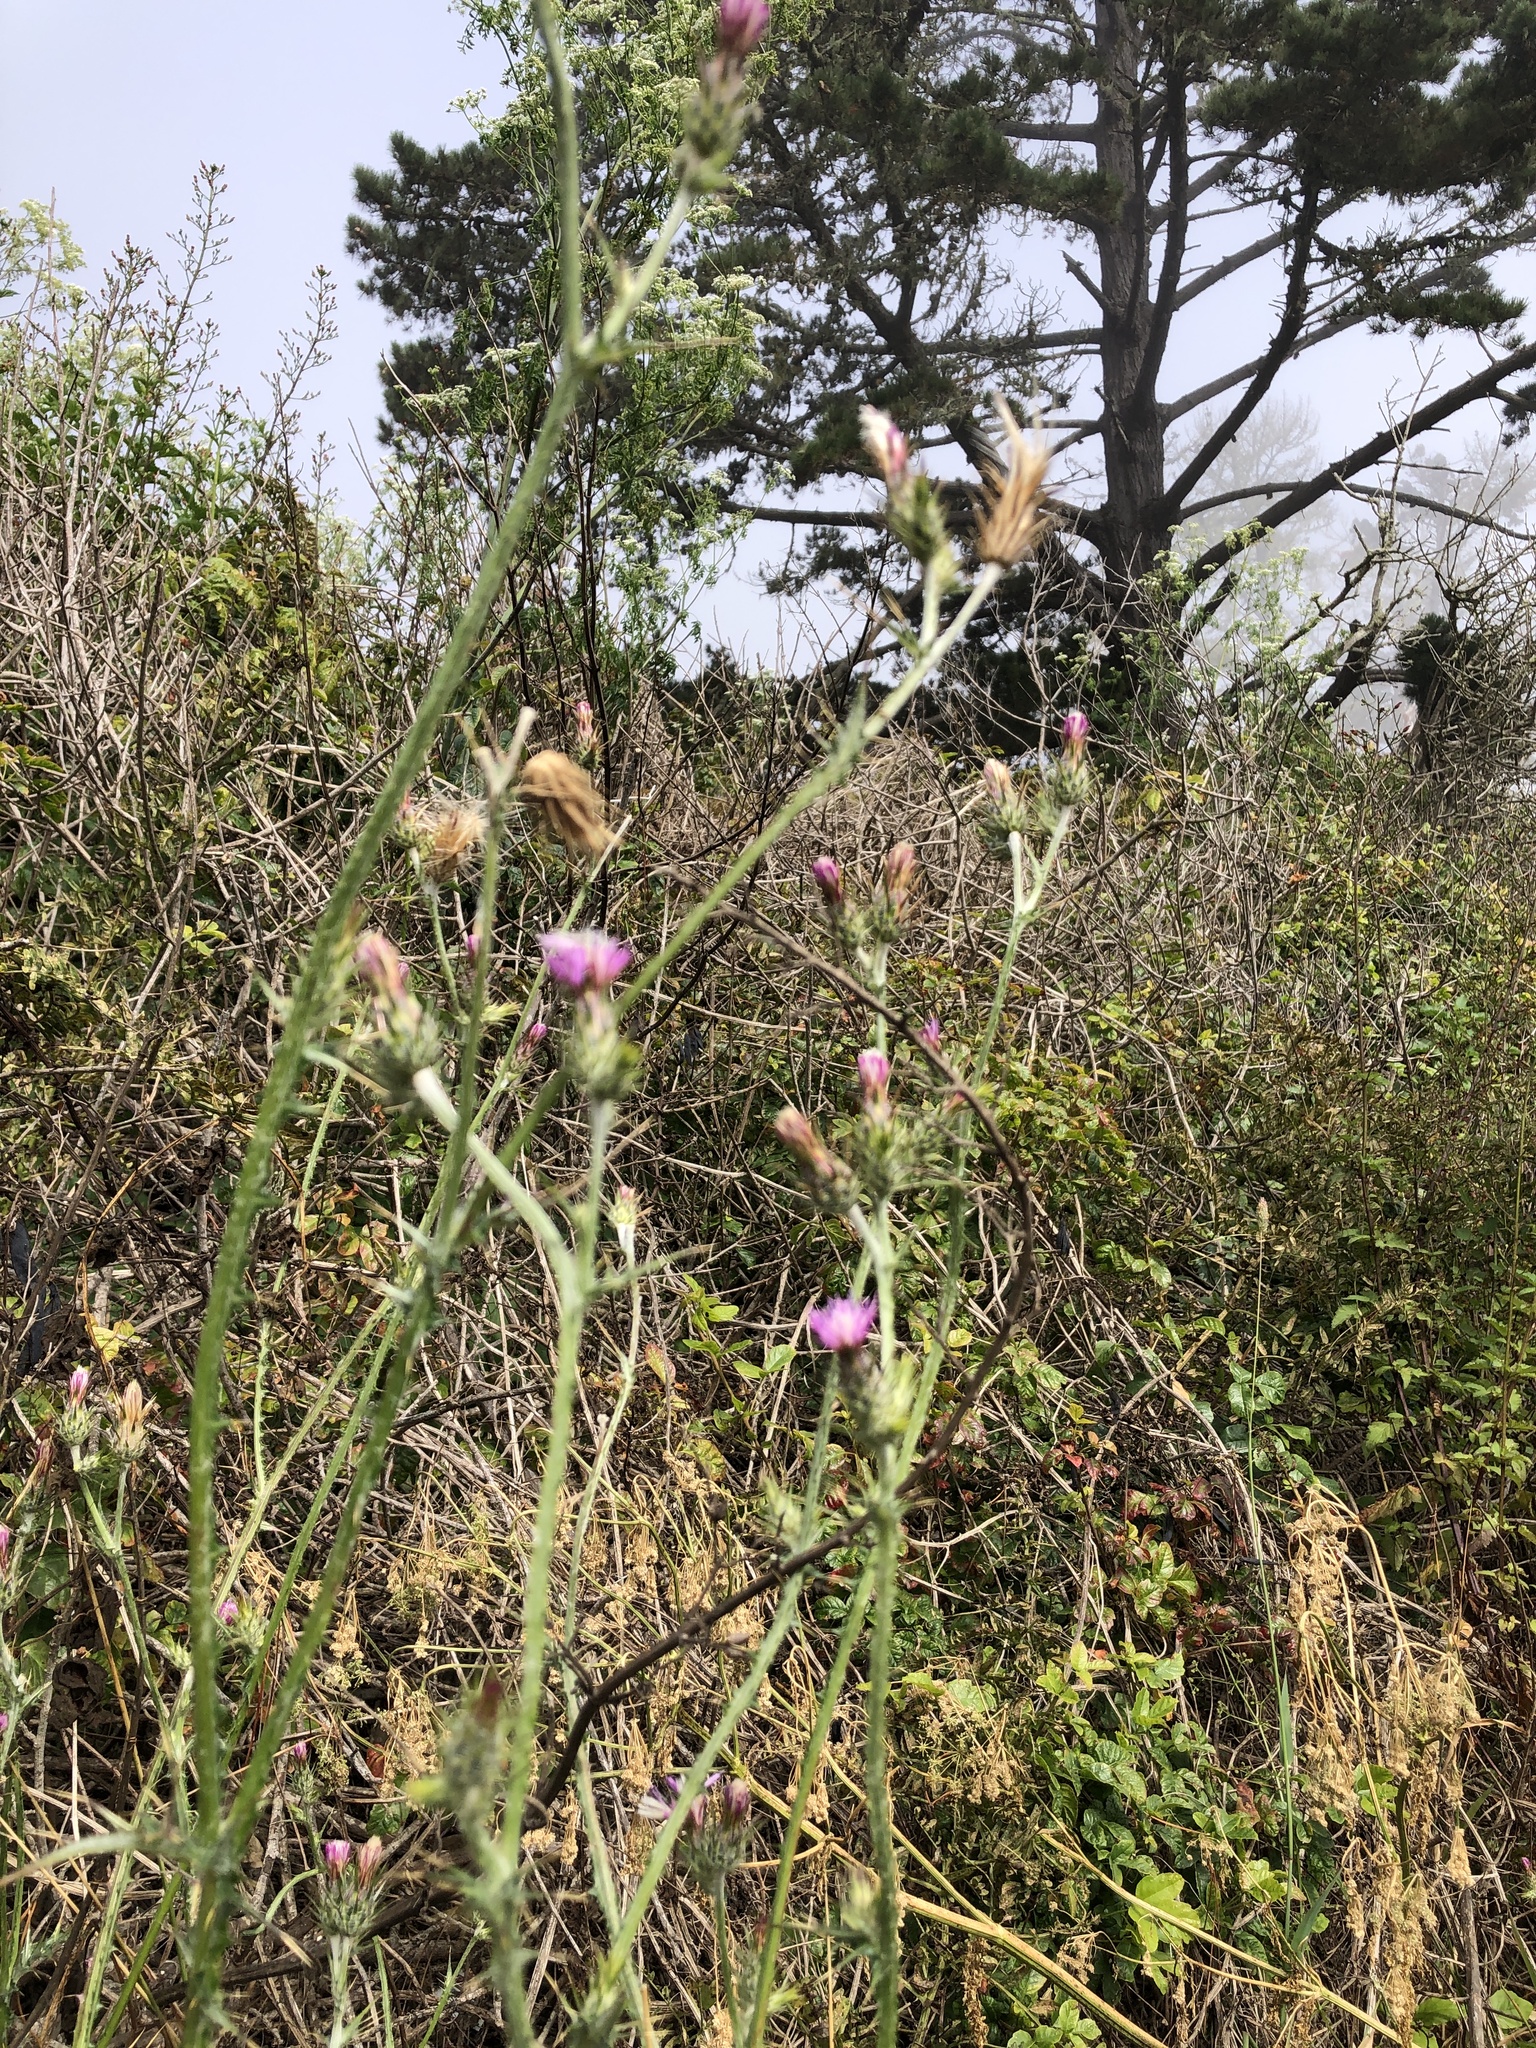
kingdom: Plantae
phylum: Tracheophyta
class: Magnoliopsida
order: Asterales
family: Asteraceae
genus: Carduus
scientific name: Carduus pycnocephalus
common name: Plymouth thistle
